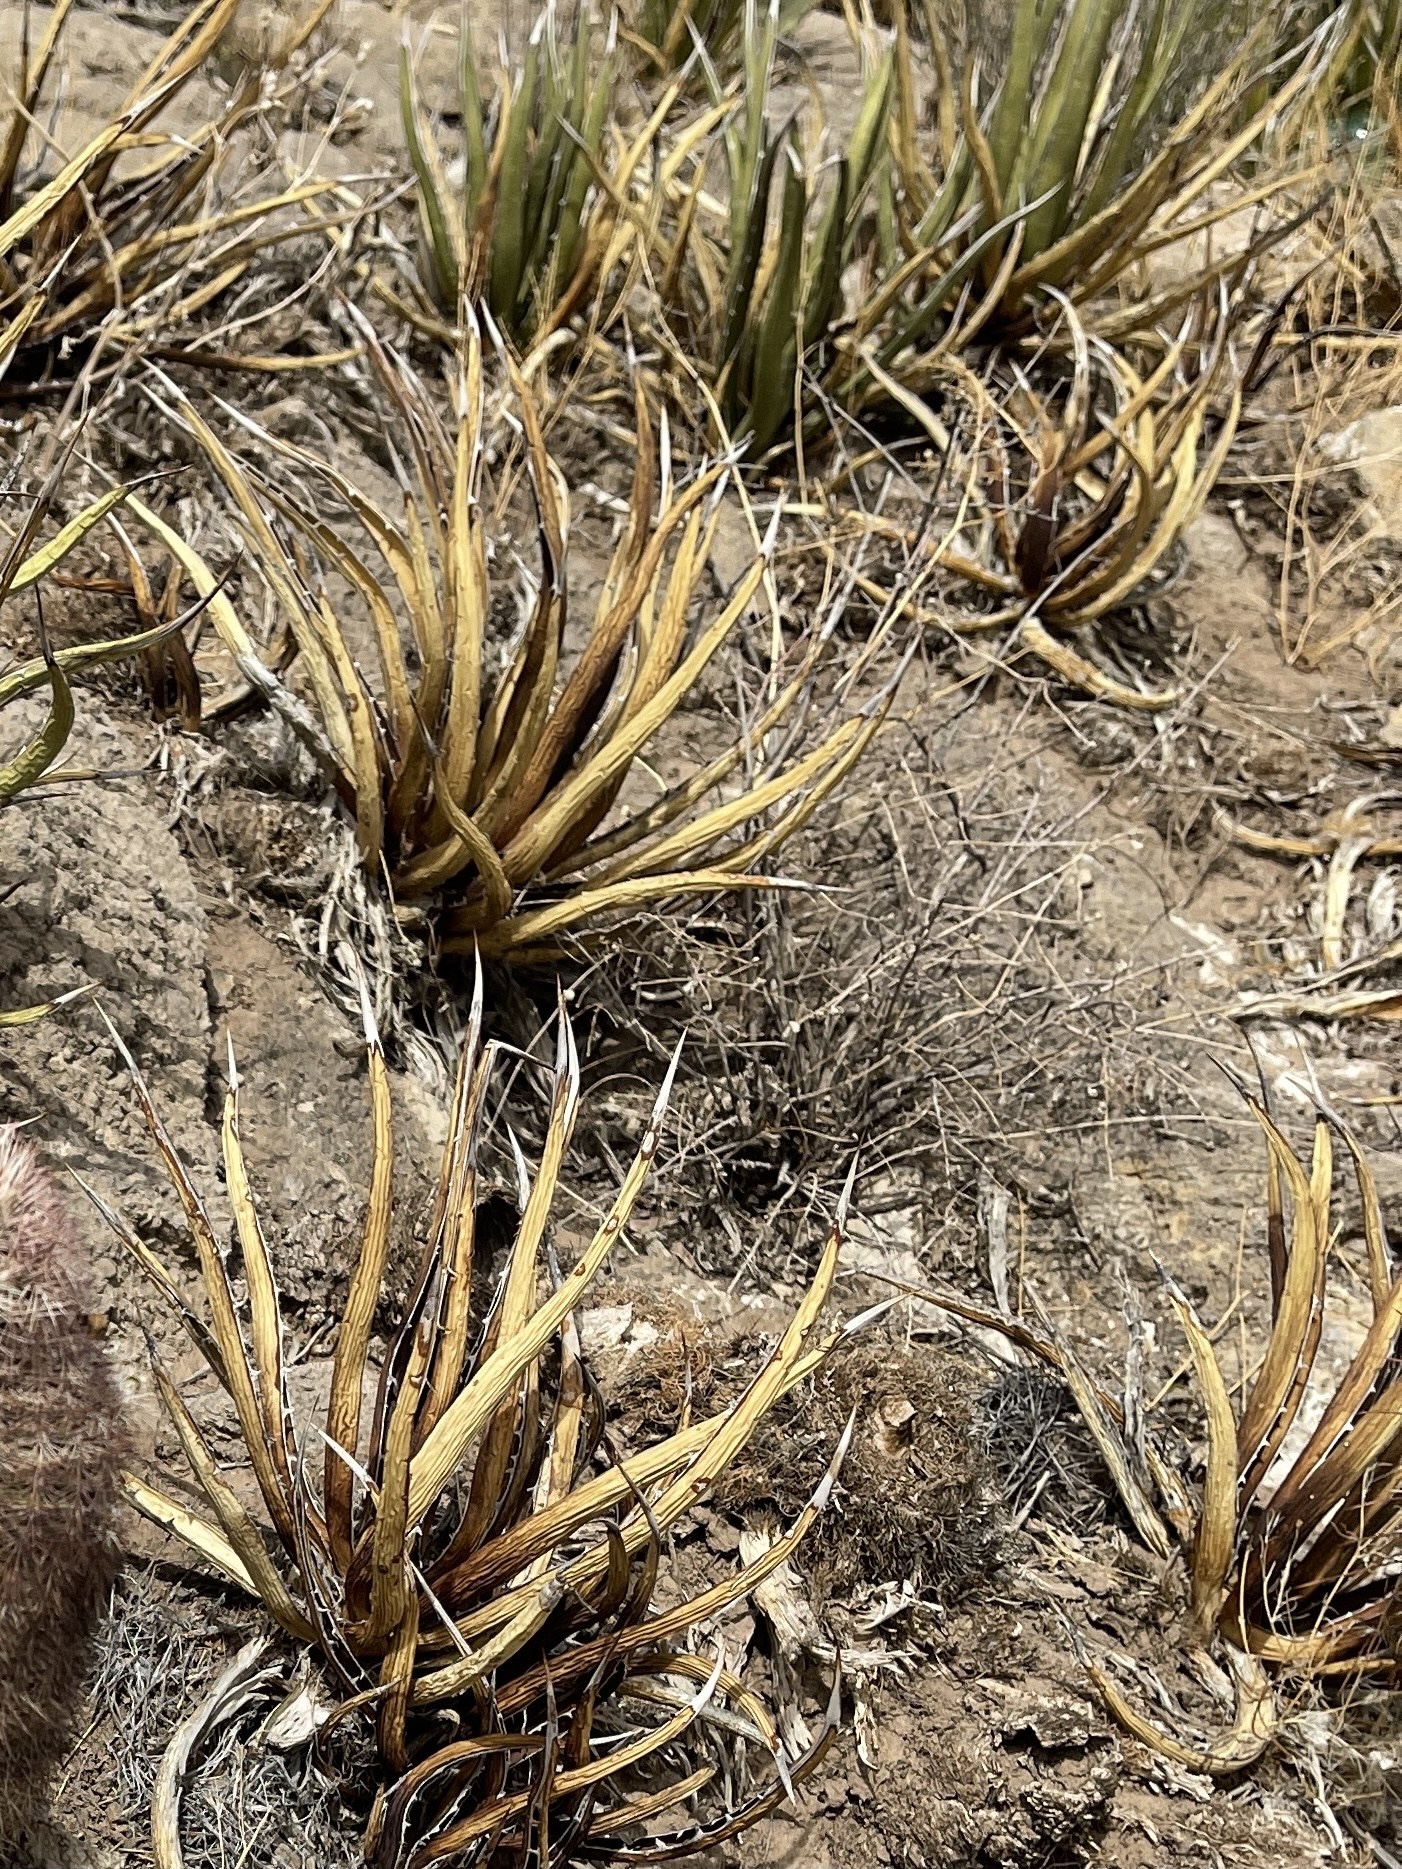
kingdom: Plantae
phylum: Tracheophyta
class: Liliopsida
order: Asparagales
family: Asparagaceae
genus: Agave
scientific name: Agave lechuguilla
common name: Lecheguilla agave
